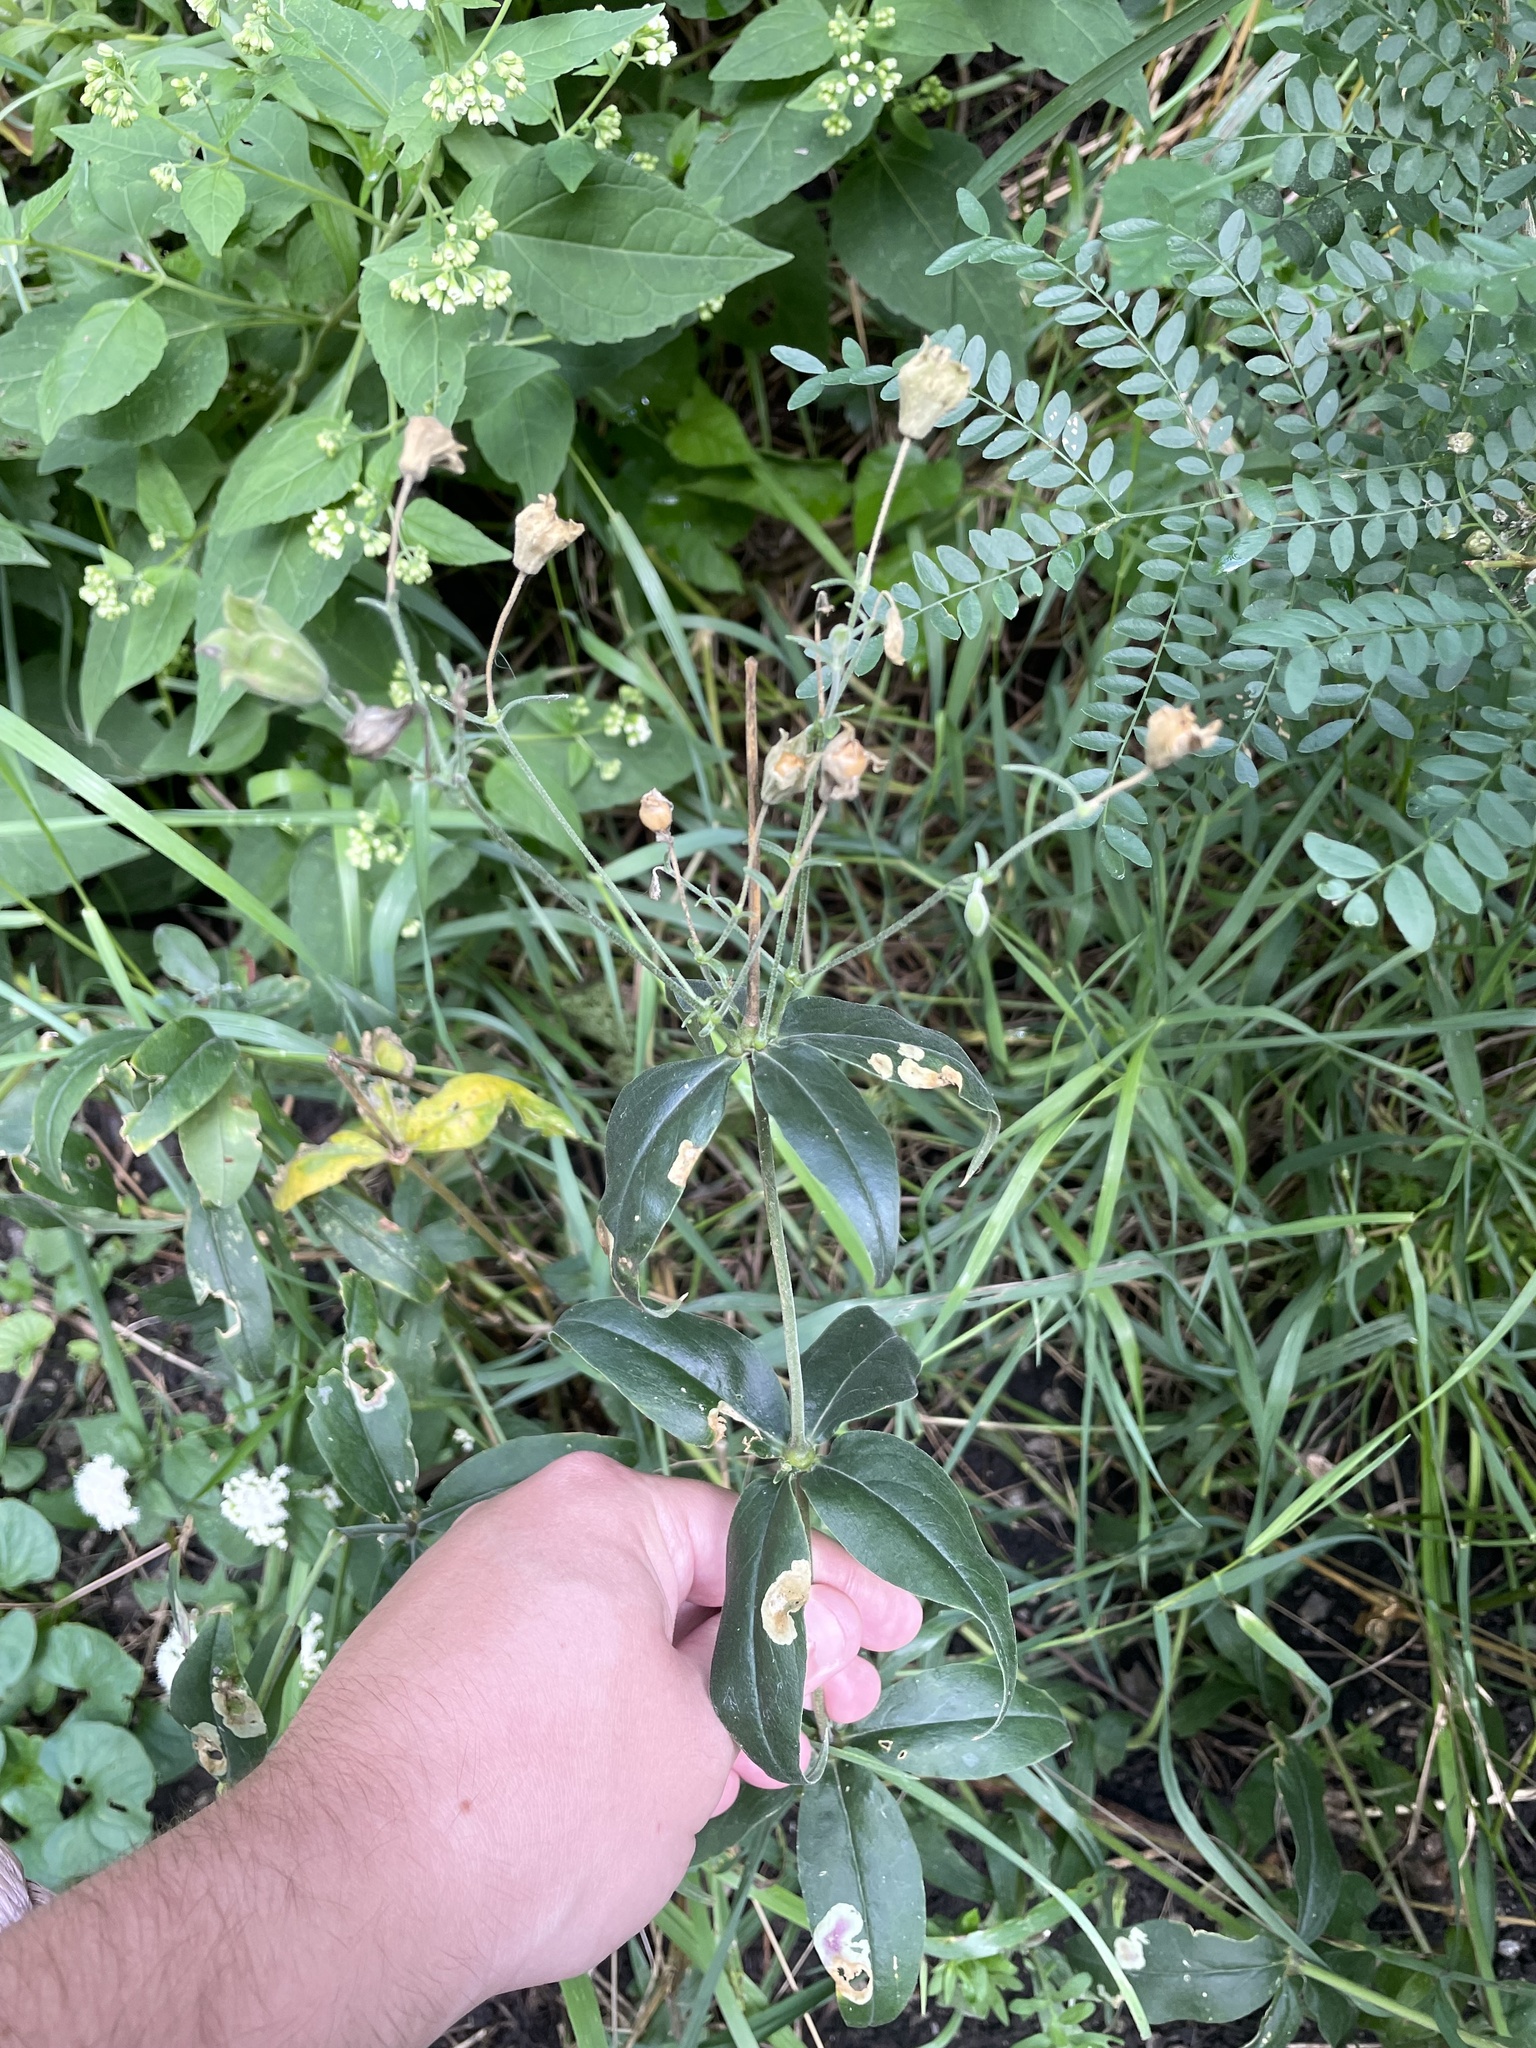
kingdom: Plantae
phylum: Tracheophyta
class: Magnoliopsida
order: Caryophyllales
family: Caryophyllaceae
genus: Silene
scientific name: Silene stellata
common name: Starry campion
